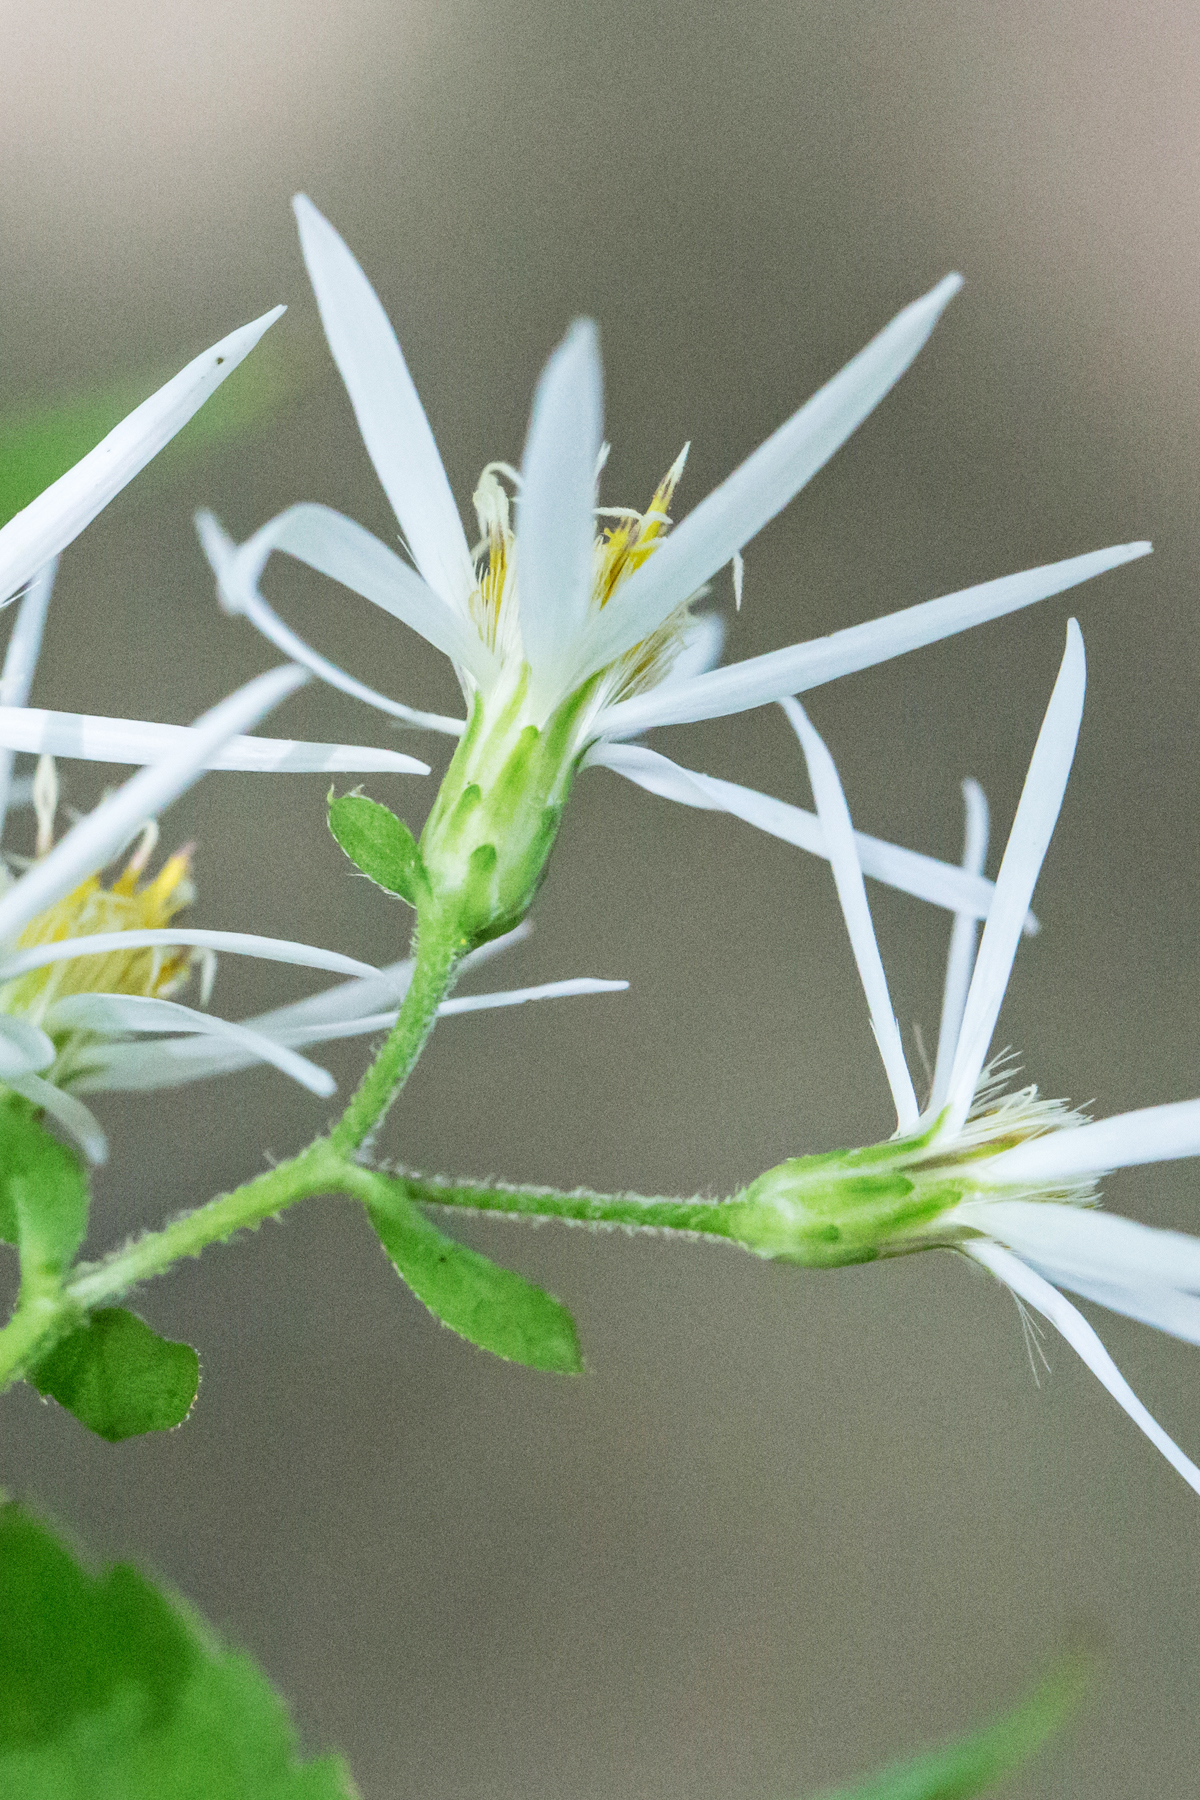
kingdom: Plantae
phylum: Tracheophyta
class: Magnoliopsida
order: Asterales
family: Asteraceae
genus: Eurybia
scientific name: Eurybia divaricata
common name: White wood aster
